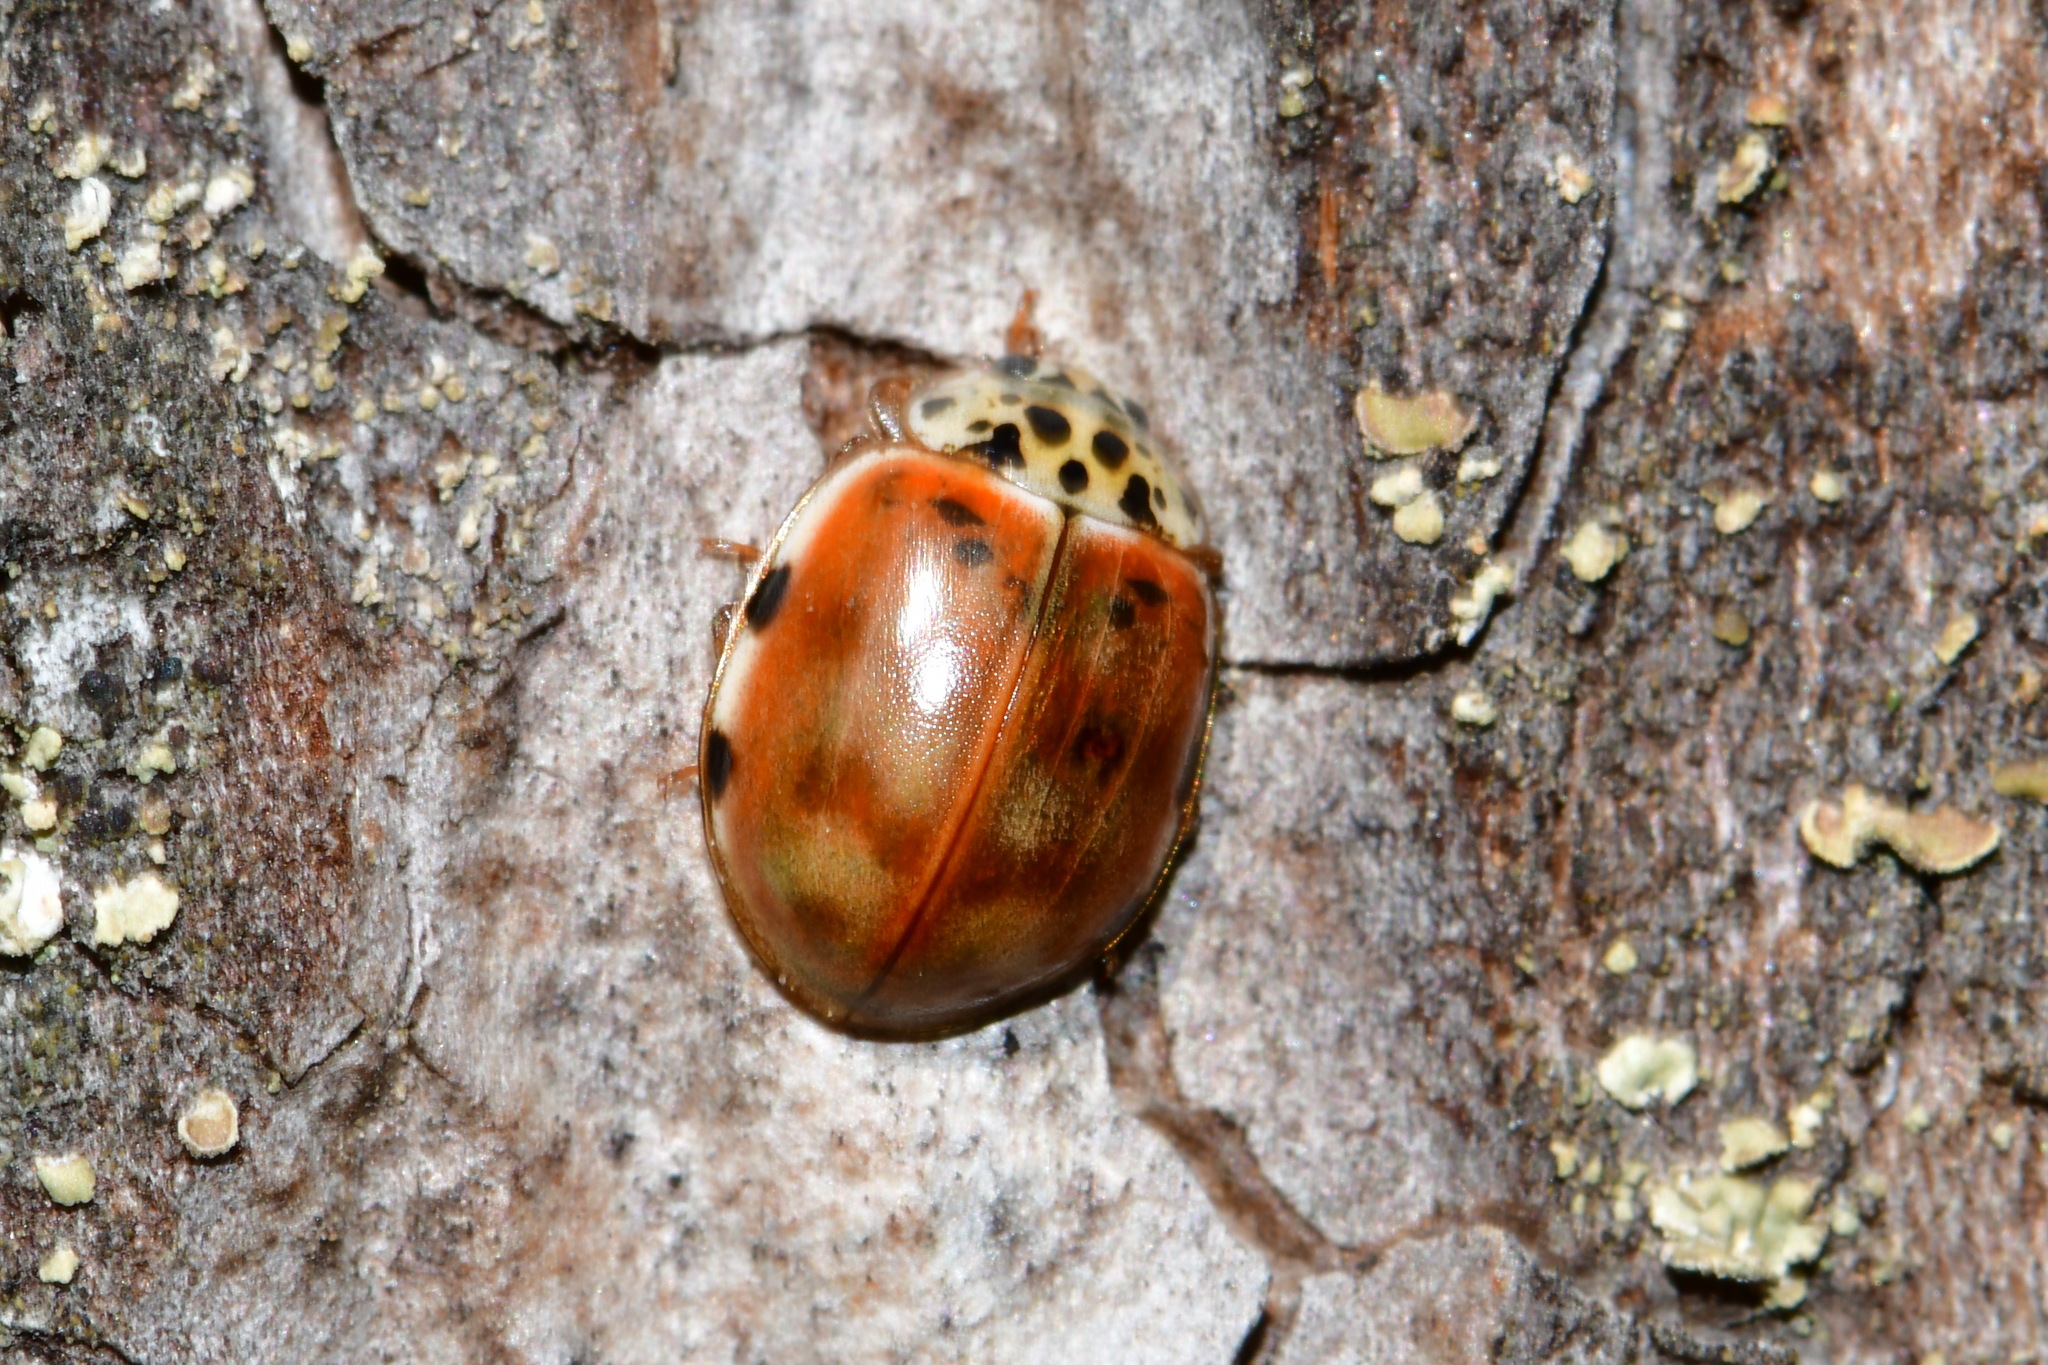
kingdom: Animalia
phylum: Arthropoda
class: Insecta
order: Coleoptera
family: Coccinellidae
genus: Harmonia
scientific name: Harmonia quadripunctata
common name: Cream-streaked ladybird
